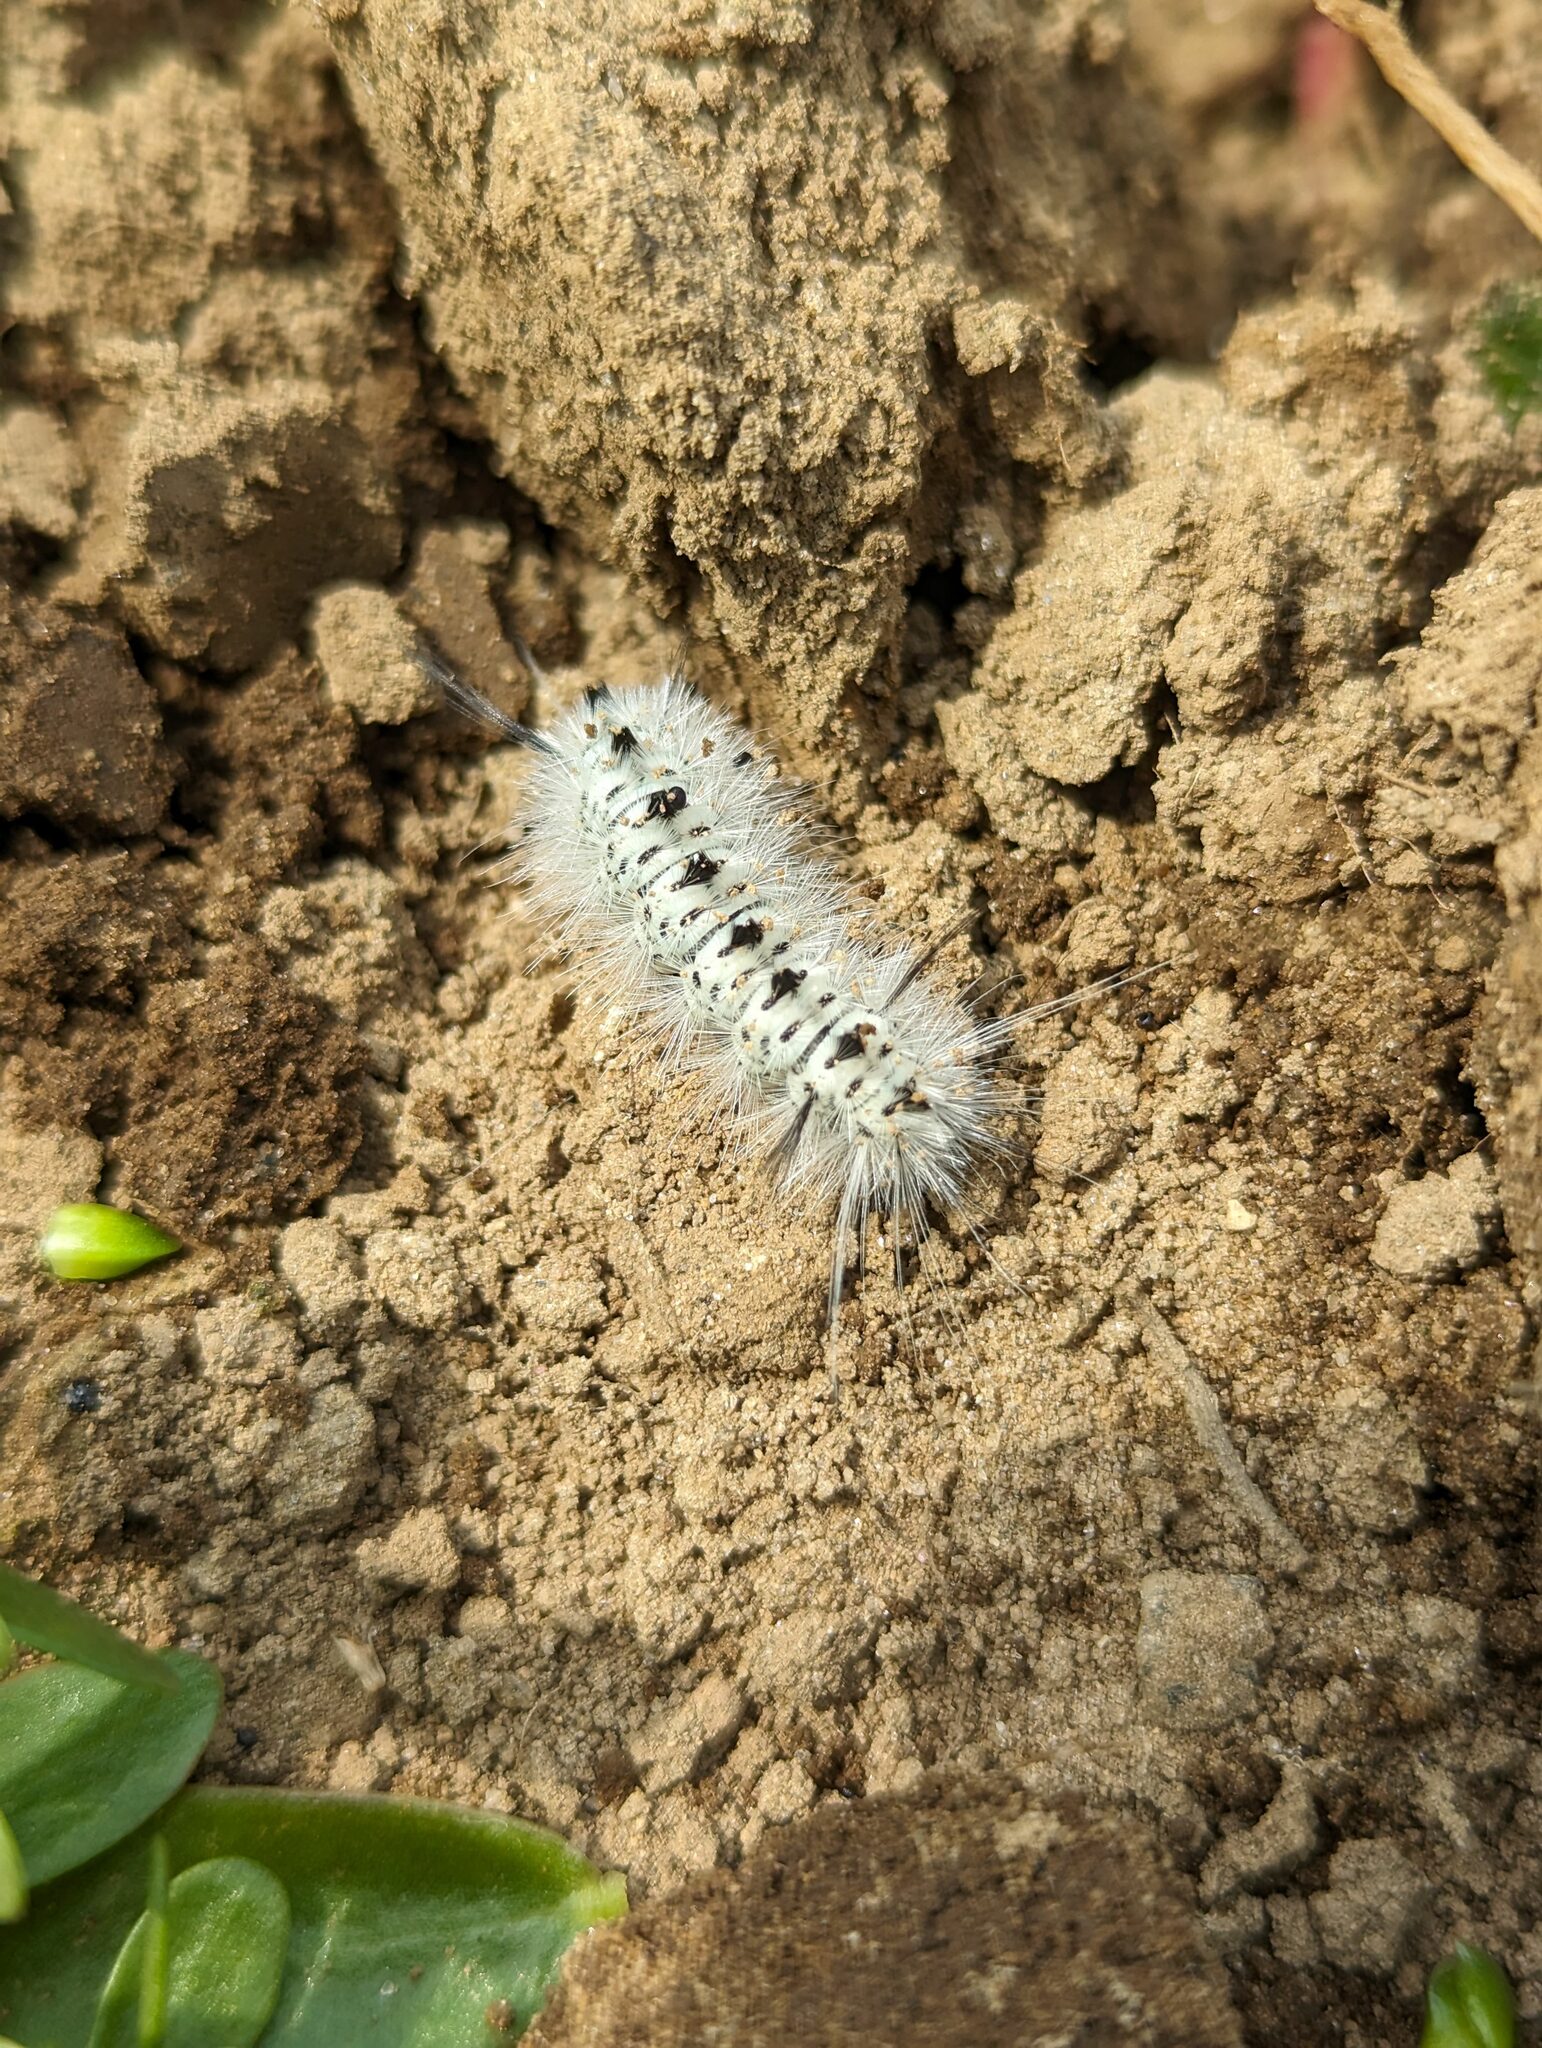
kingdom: Animalia
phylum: Arthropoda
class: Insecta
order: Lepidoptera
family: Erebidae
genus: Lophocampa
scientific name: Lophocampa caryae
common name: Hickory tussock moth
